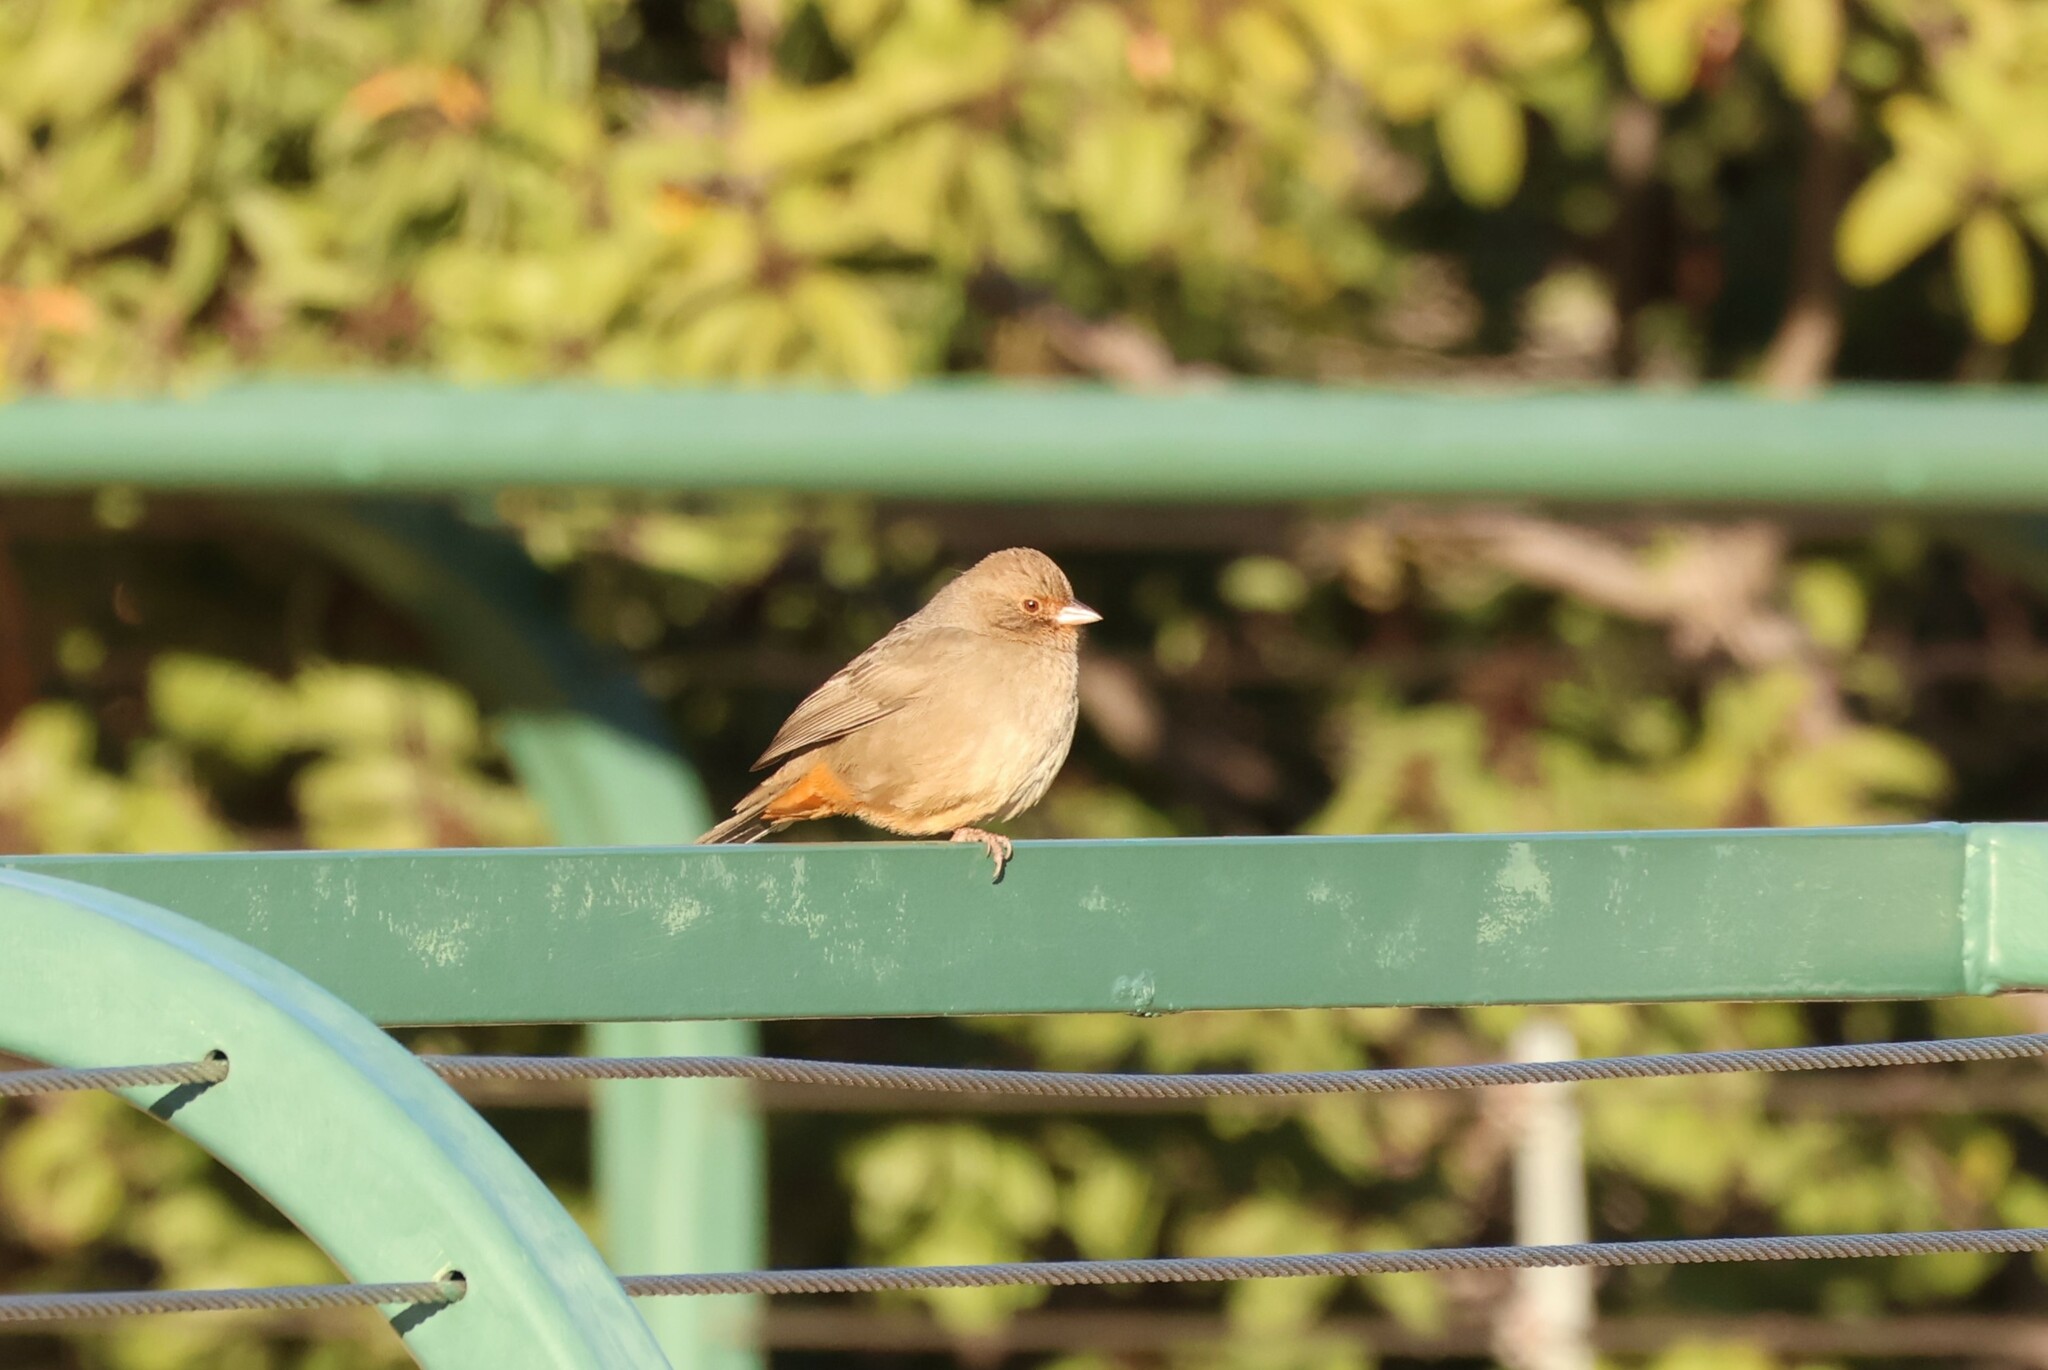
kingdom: Animalia
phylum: Chordata
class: Aves
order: Passeriformes
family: Passerellidae
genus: Melozone
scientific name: Melozone crissalis
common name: California towhee
